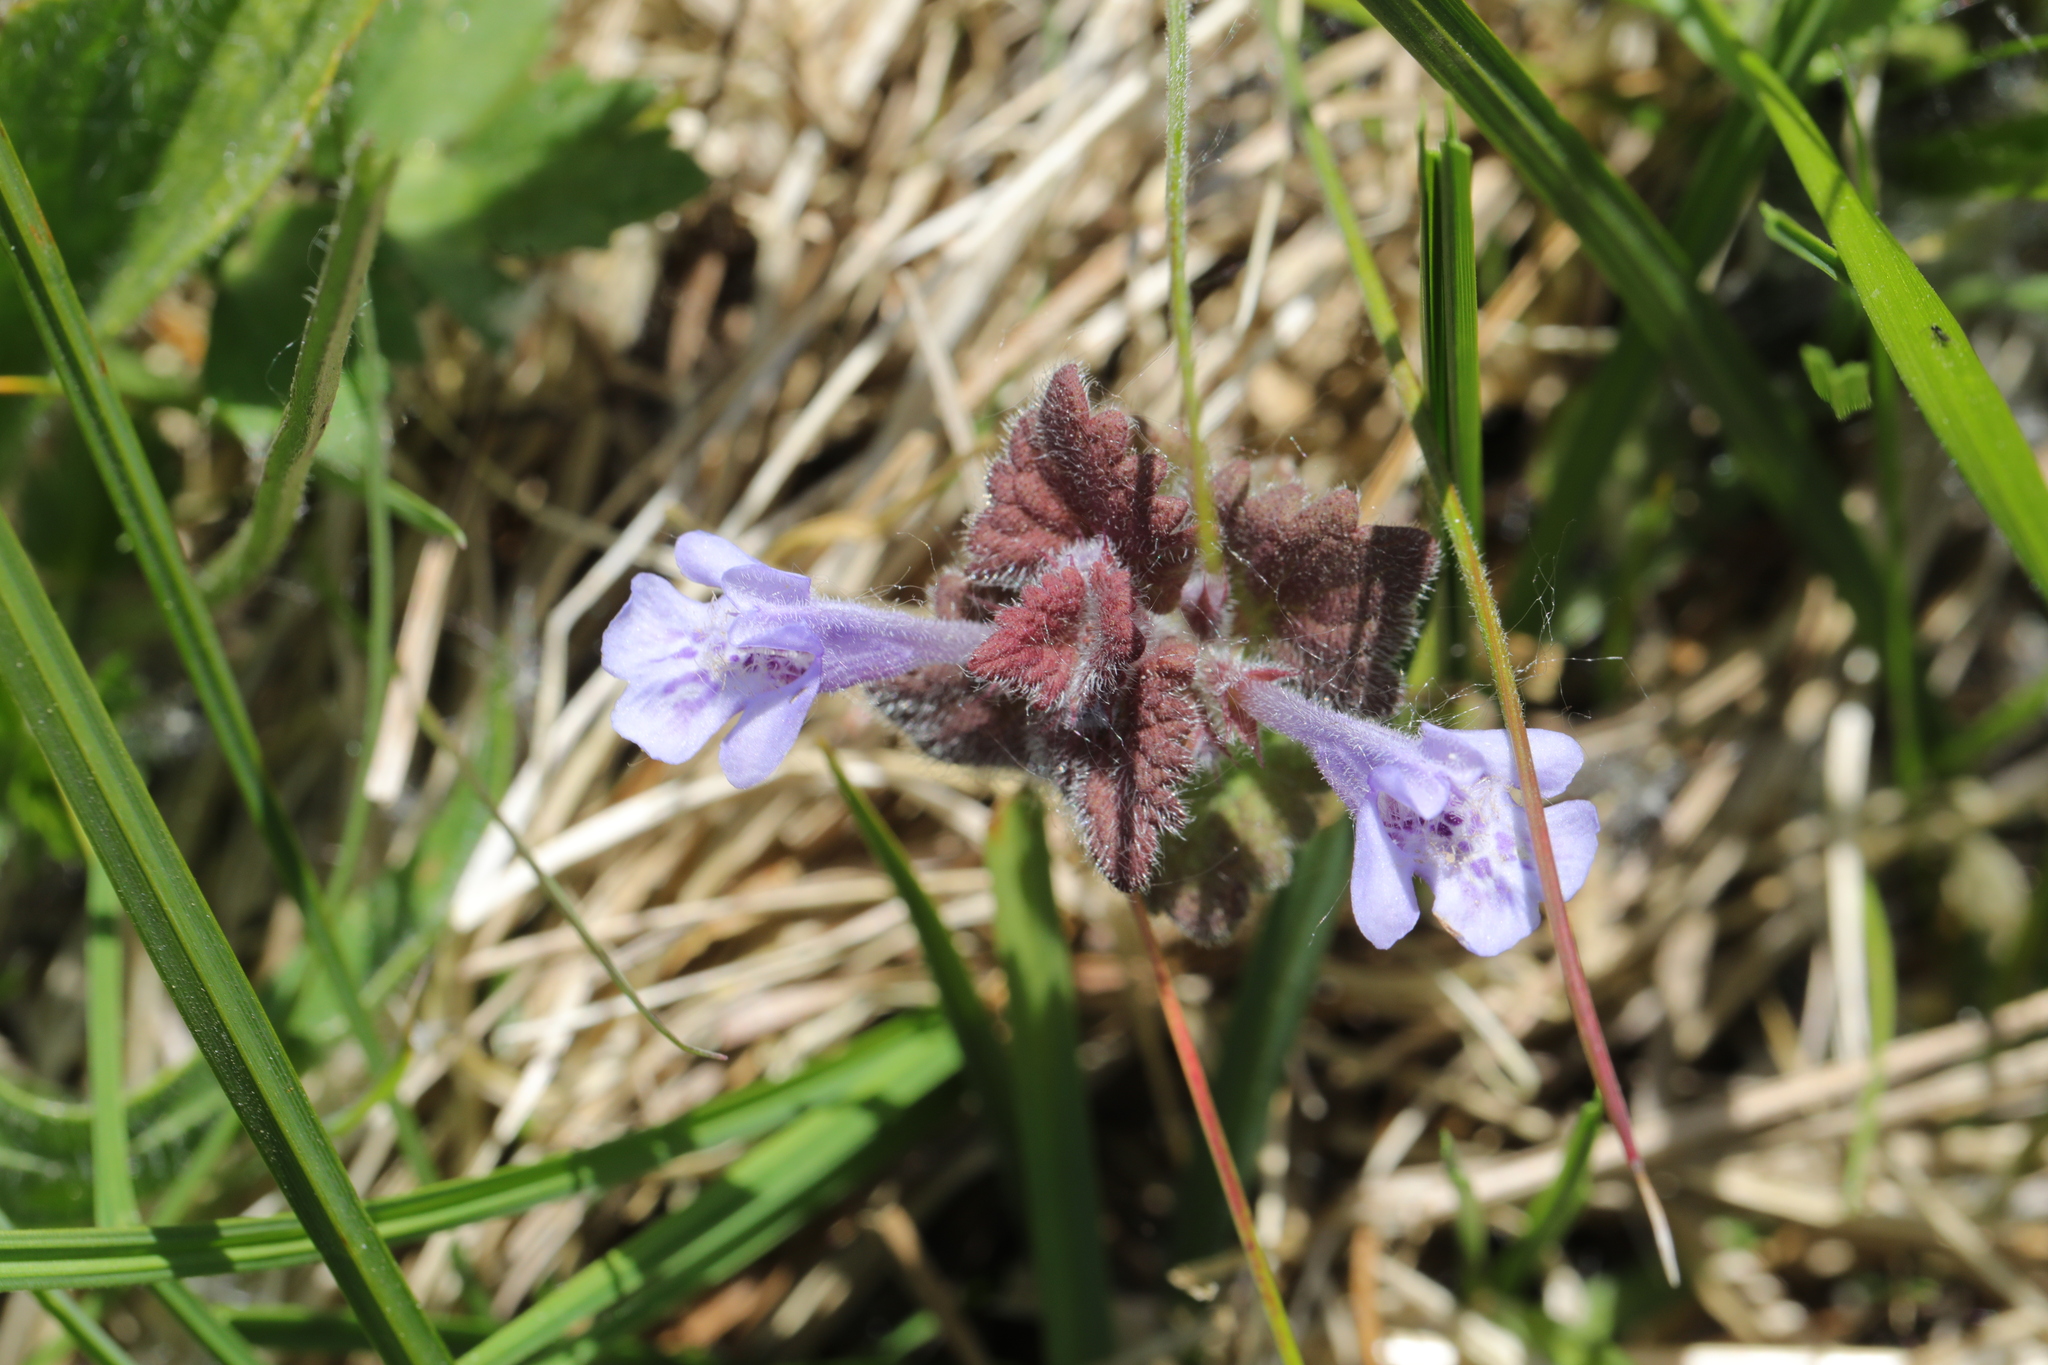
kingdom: Plantae
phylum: Tracheophyta
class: Magnoliopsida
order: Lamiales
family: Lamiaceae
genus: Glechoma
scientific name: Glechoma hederacea
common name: Ground ivy
